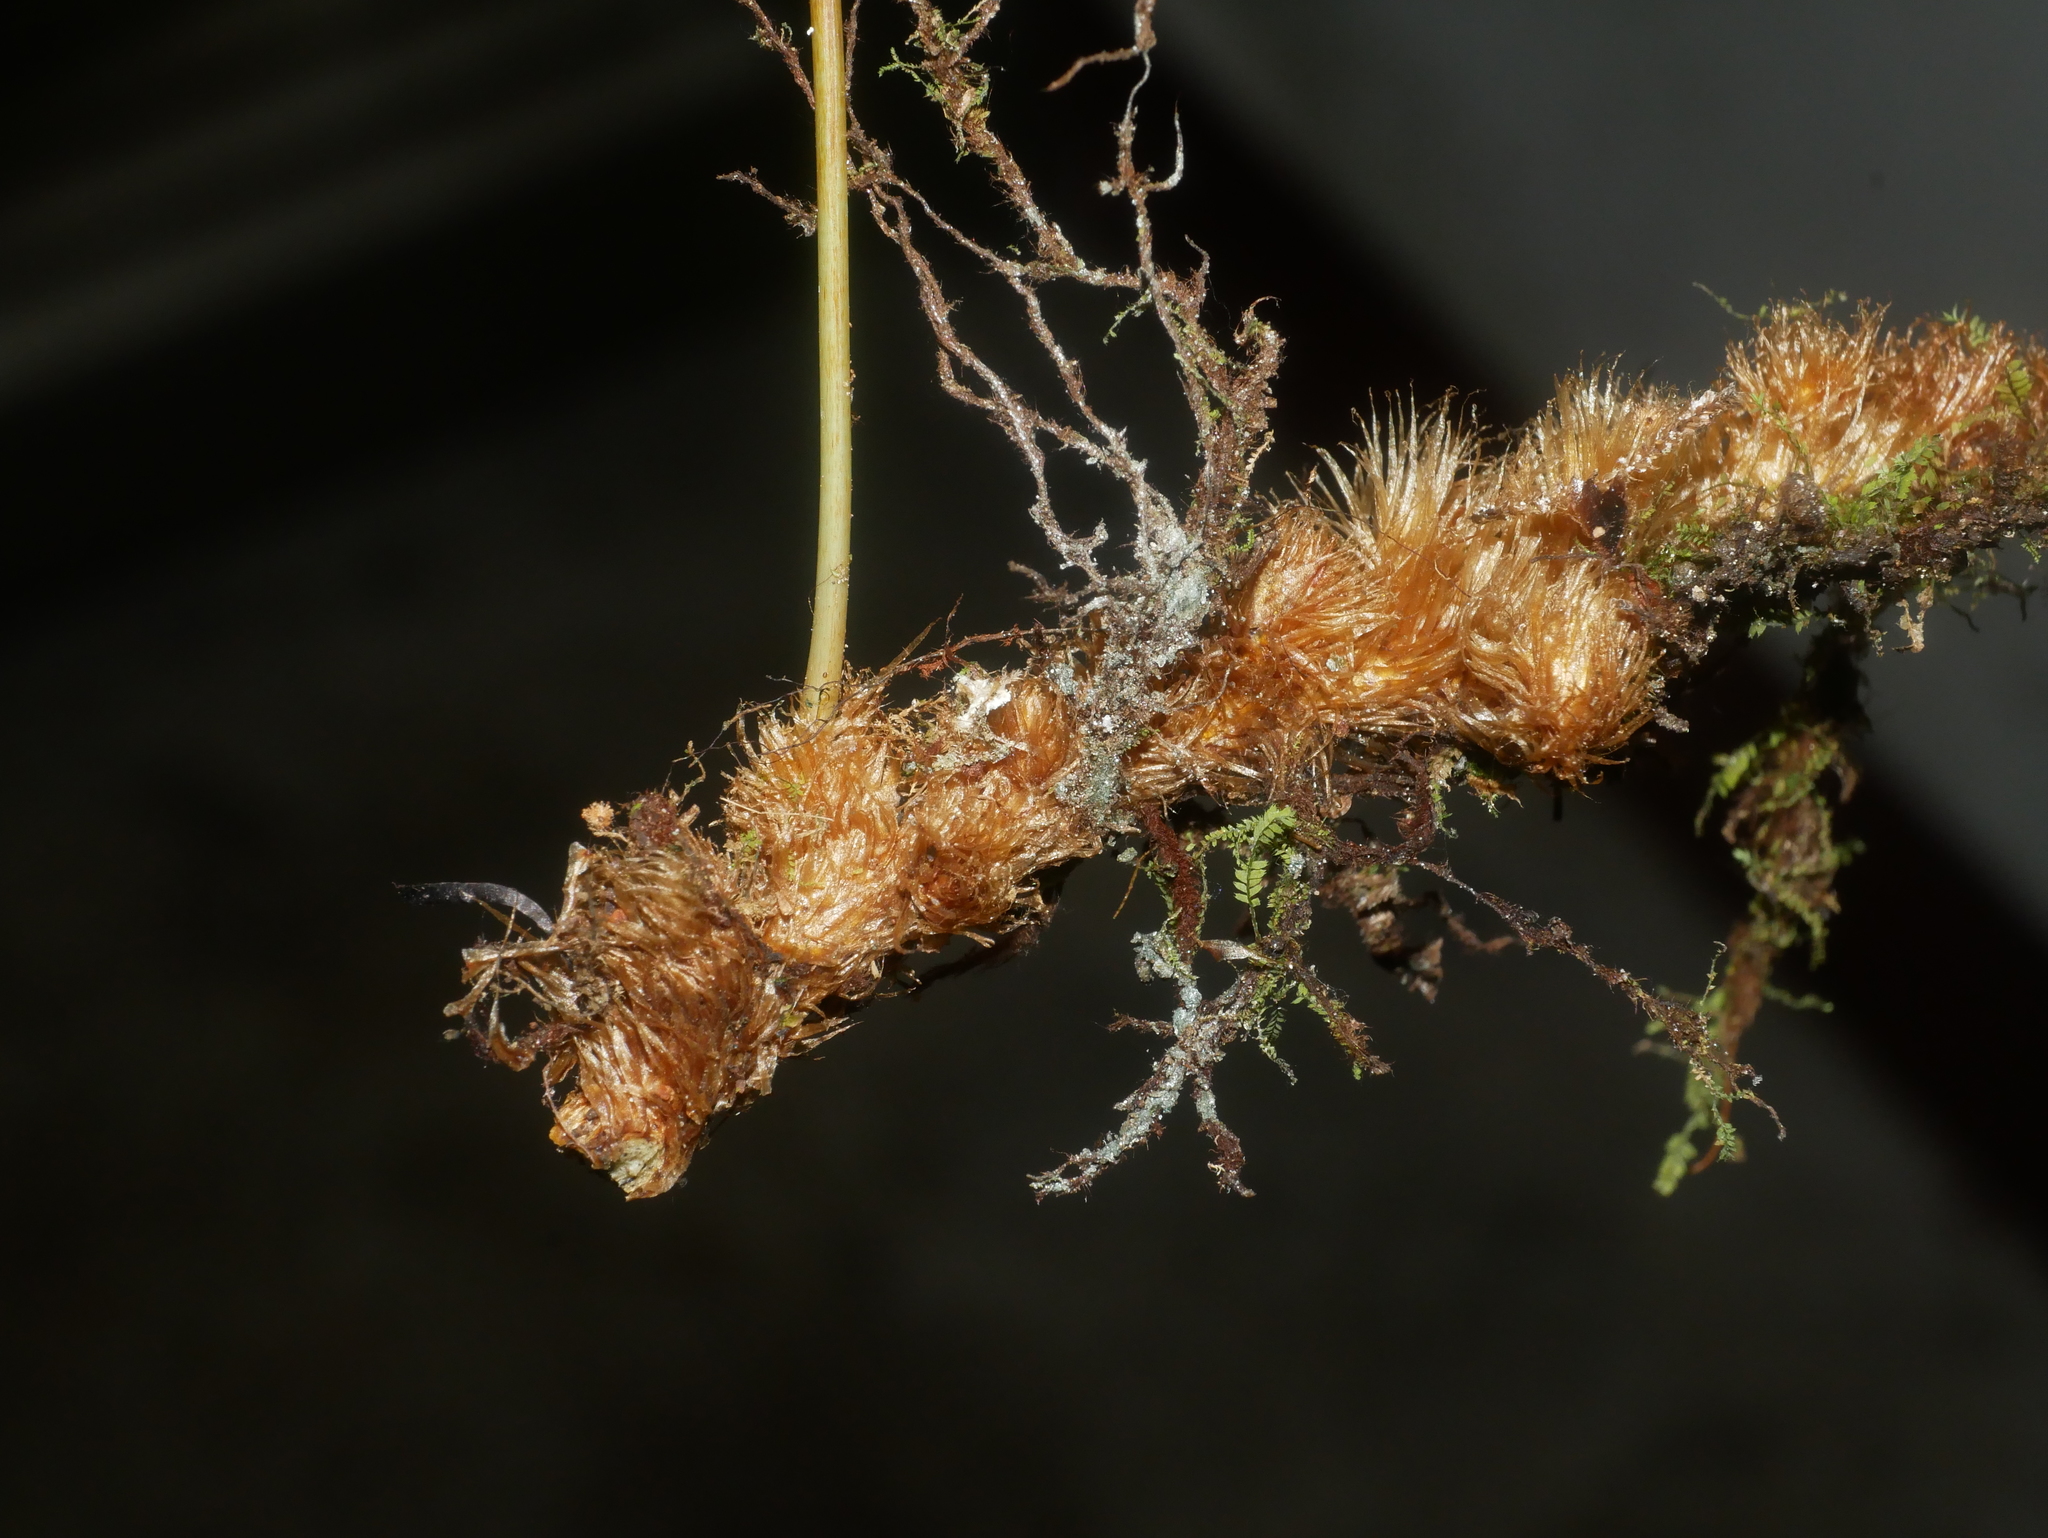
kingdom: Plantae
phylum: Tracheophyta
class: Polypodiopsida
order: Polypodiales
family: Polypodiaceae
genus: Selliguea
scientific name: Selliguea engleri
